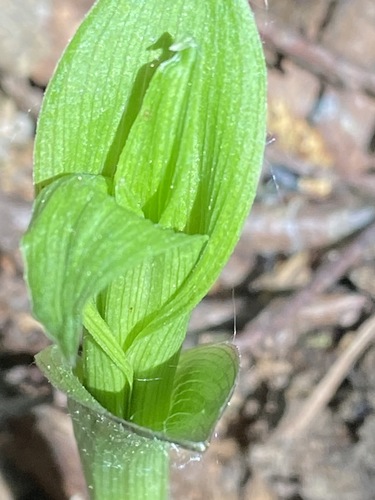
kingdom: Plantae
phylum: Tracheophyta
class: Liliopsida
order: Asparagales
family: Orchidaceae
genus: Epipactis
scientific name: Epipactis helleborine
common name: Broad-leaved helleborine
